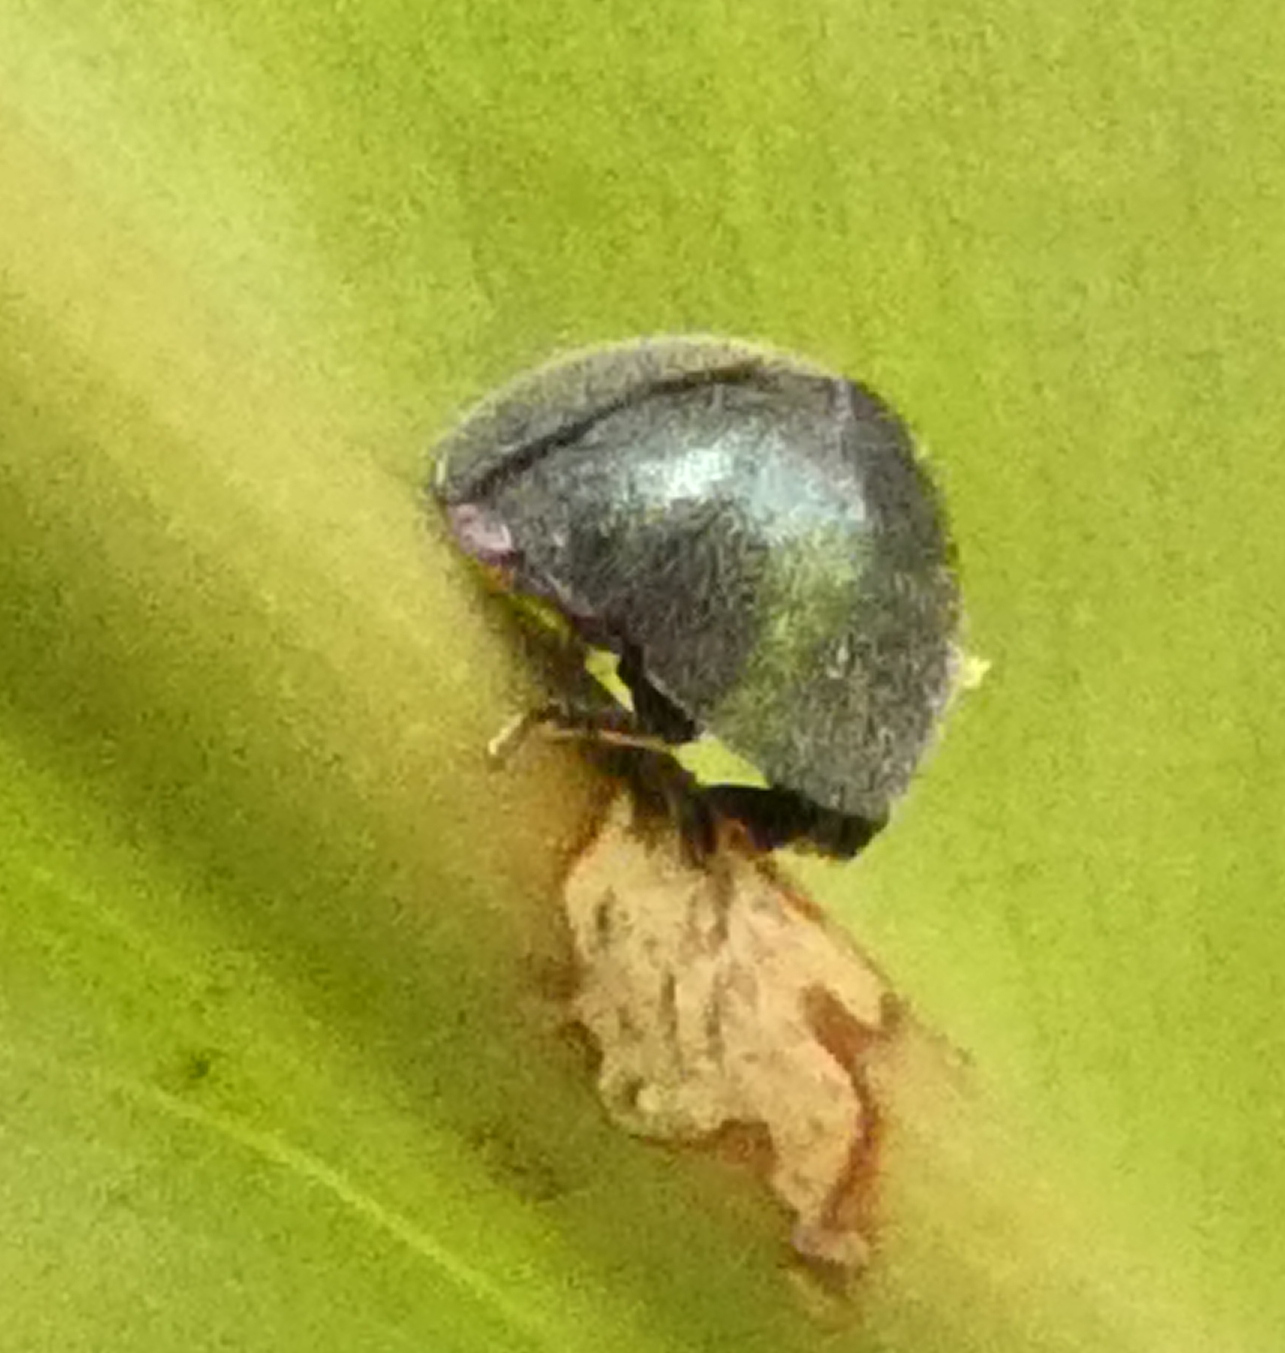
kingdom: Animalia
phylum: Arthropoda
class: Insecta
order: Coleoptera
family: Coccinellidae
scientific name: Coccinellidae
